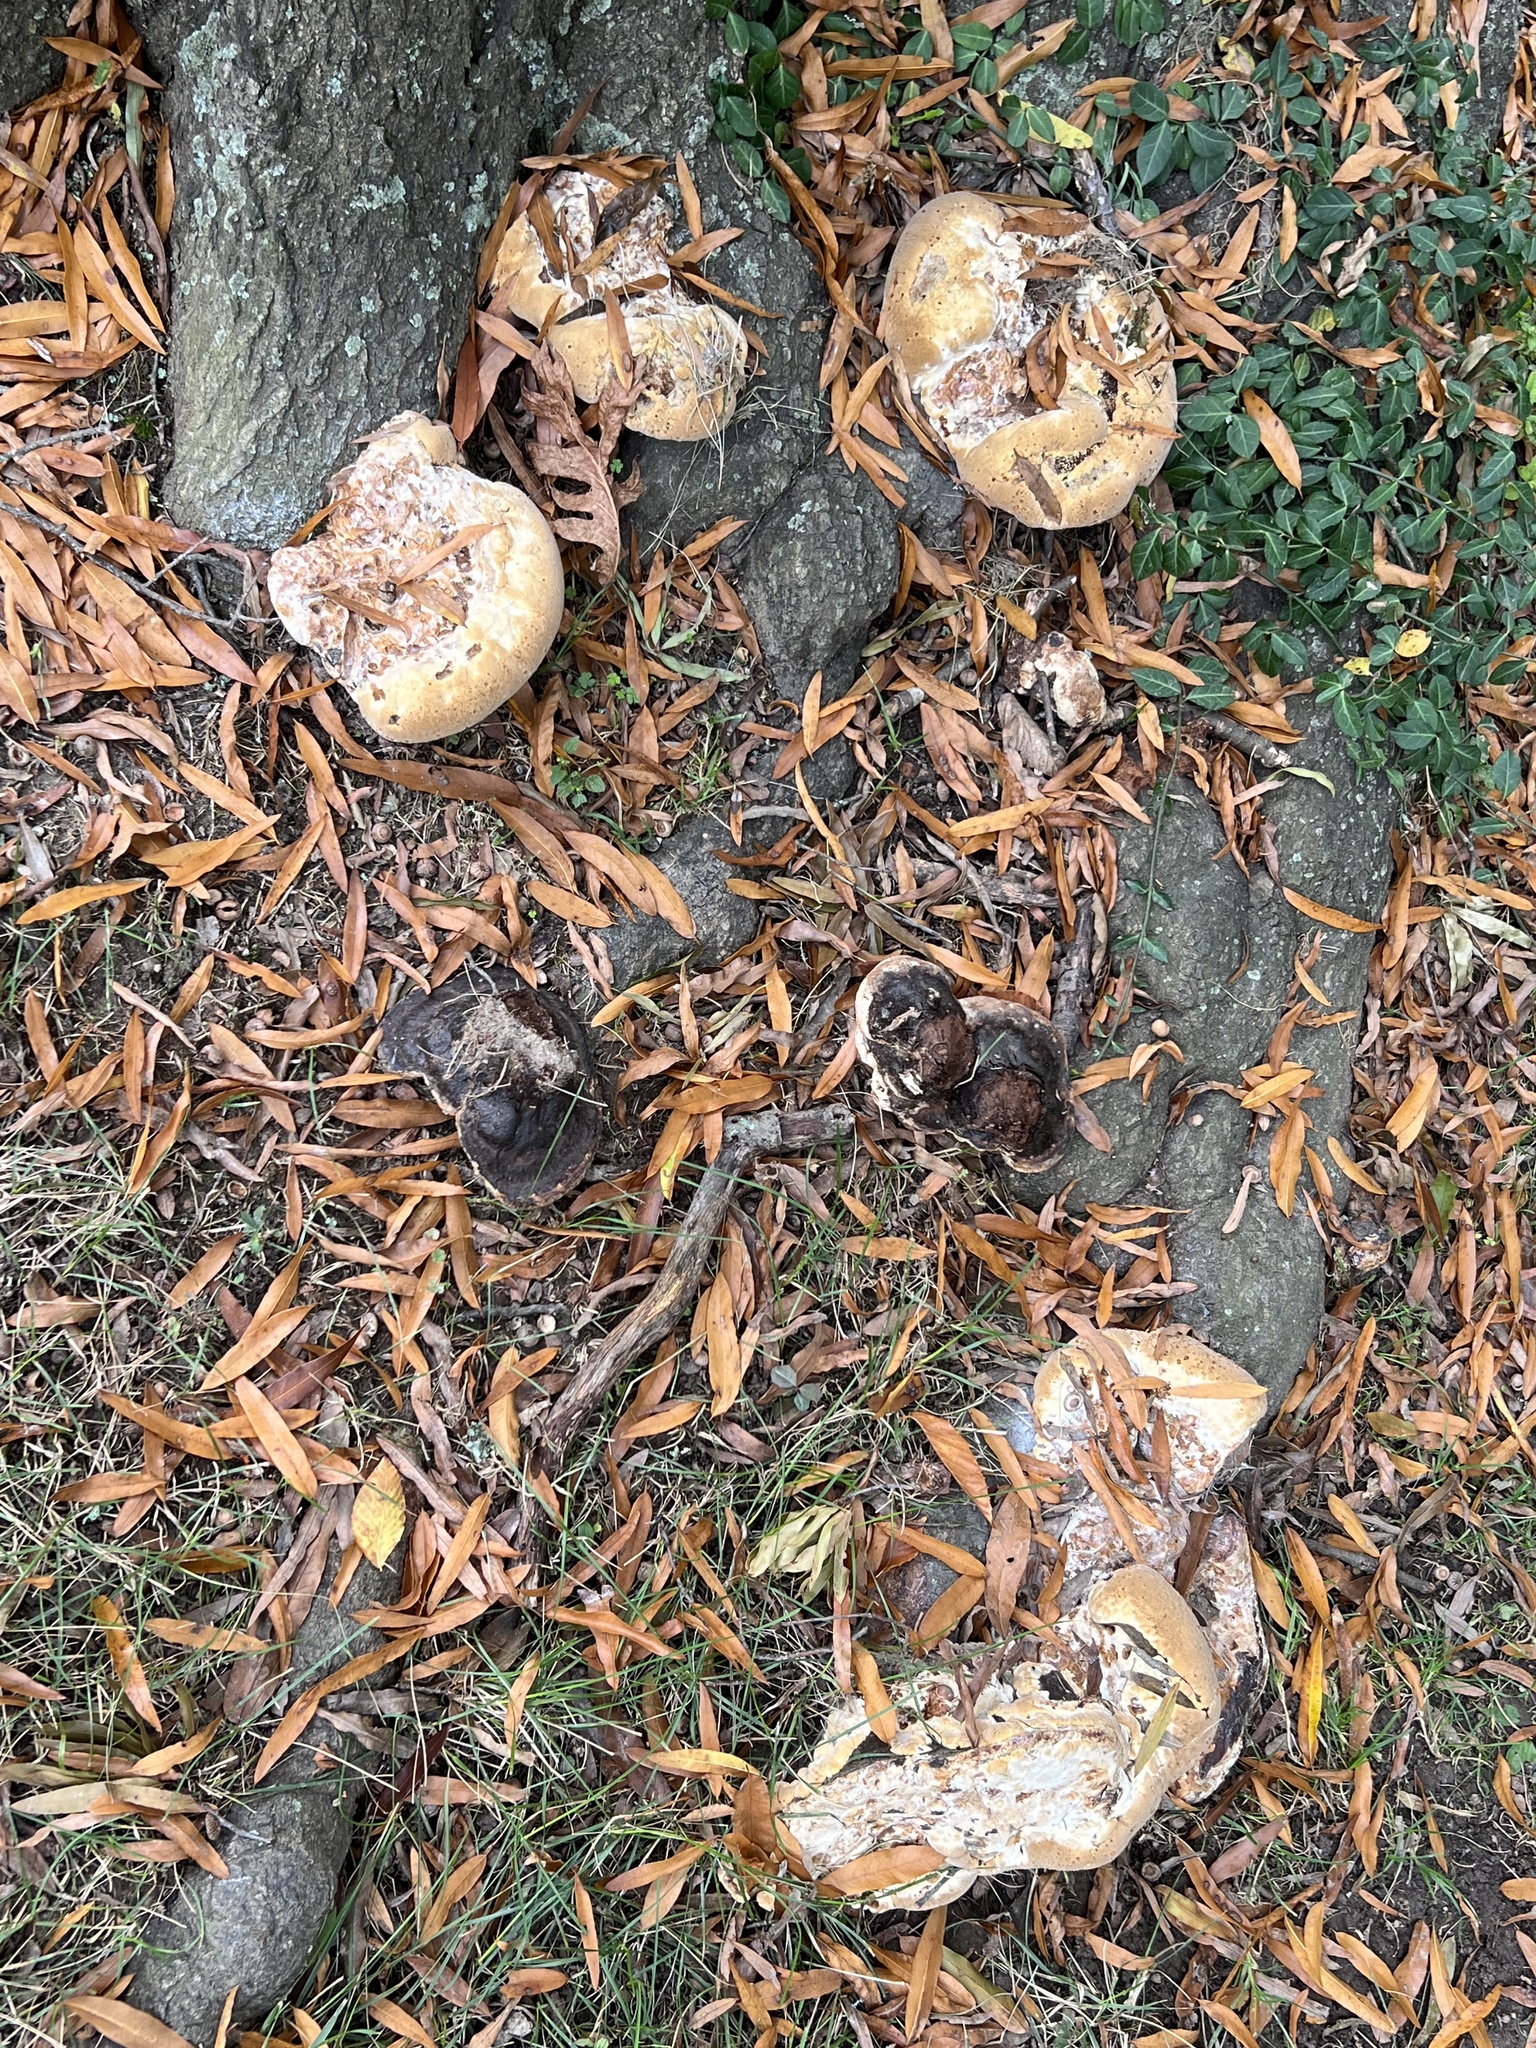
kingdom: Fungi
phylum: Basidiomycota
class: Agaricomycetes
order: Hymenochaetales
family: Hymenochaetaceae
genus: Pseudoinonotus
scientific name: Pseudoinonotus dryadeus
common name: Oak bracket
